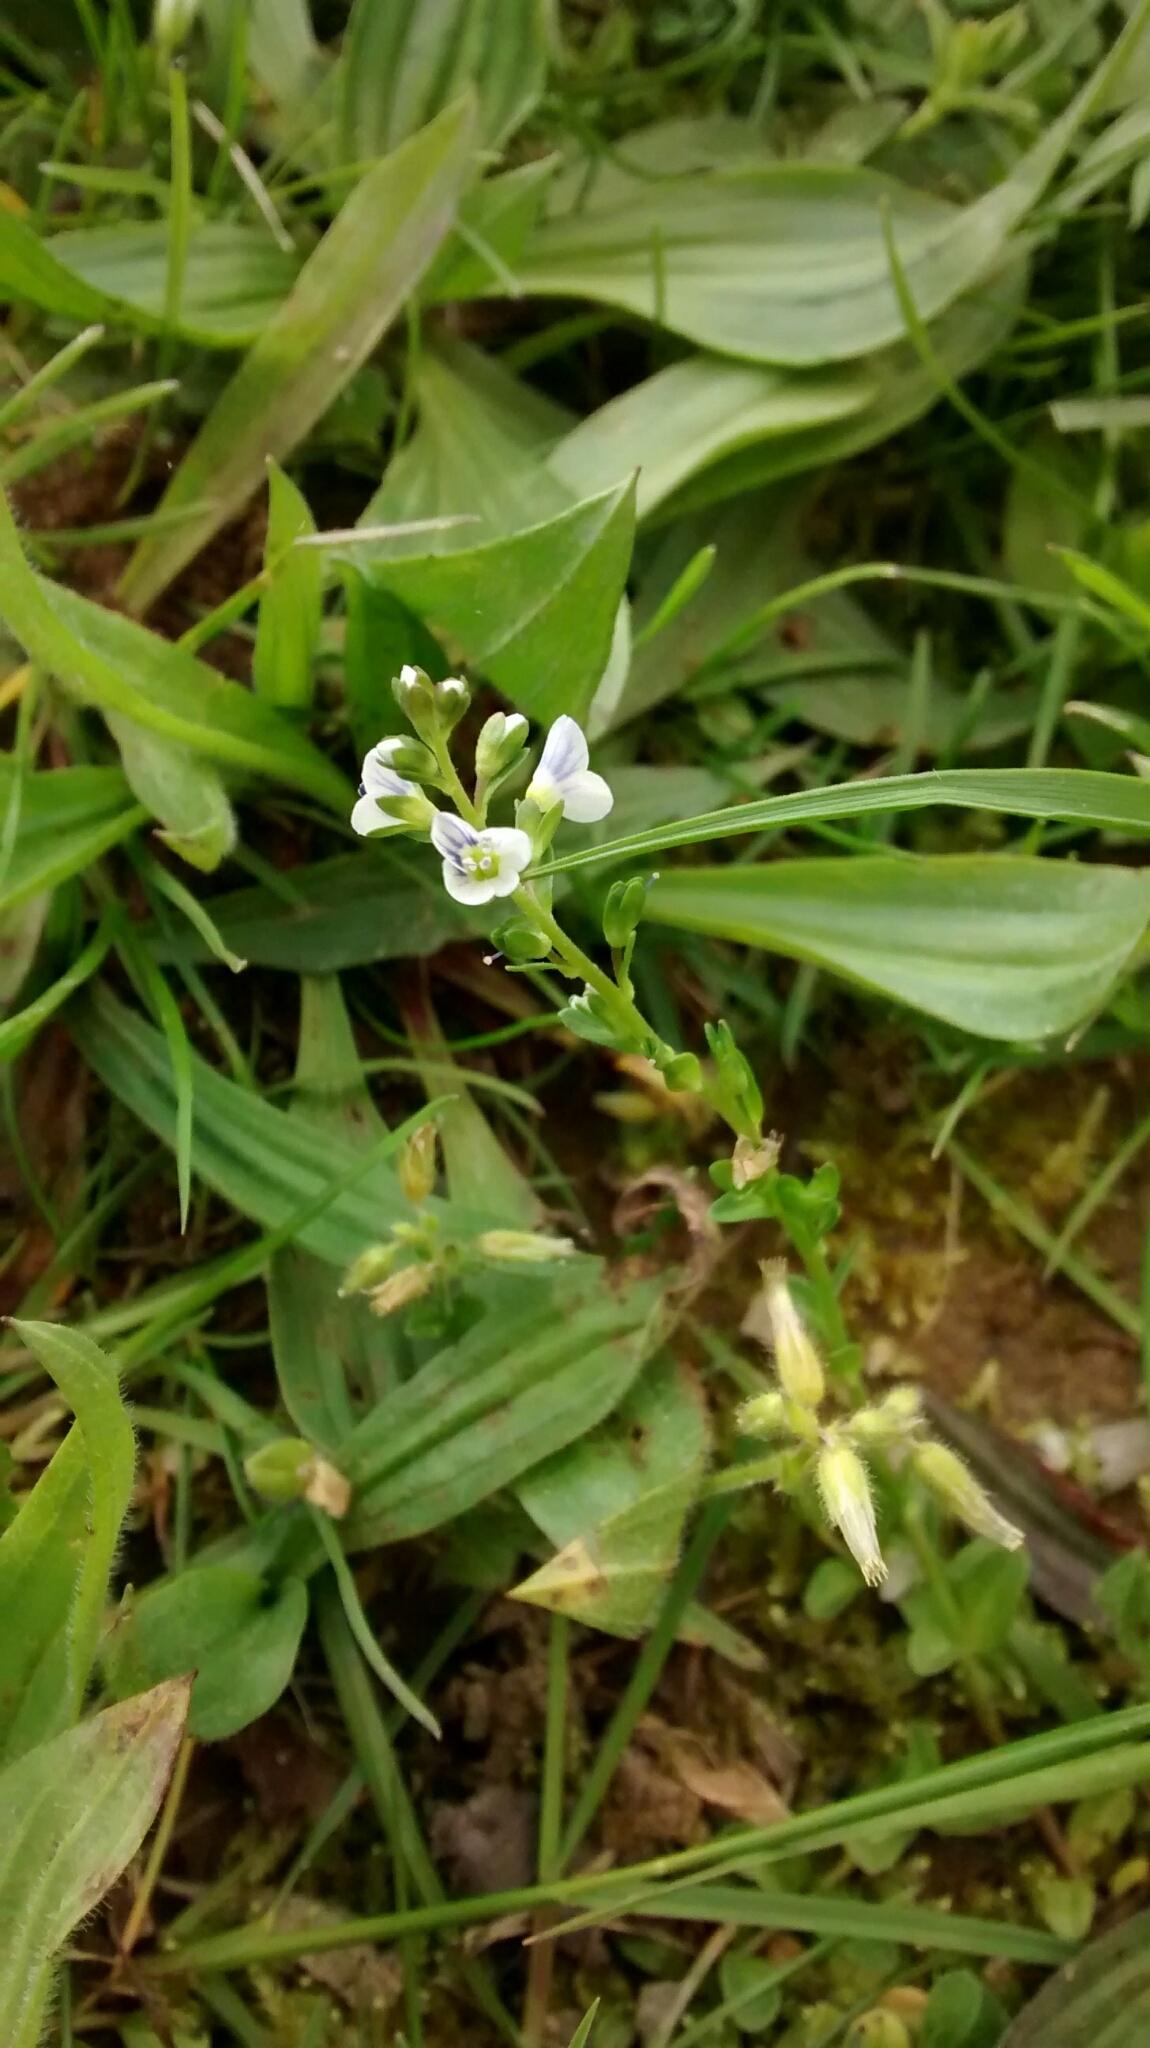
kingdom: Plantae
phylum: Tracheophyta
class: Magnoliopsida
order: Lamiales
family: Plantaginaceae
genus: Veronica
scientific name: Veronica serpyllifolia
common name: Thyme-leaved speedwell
